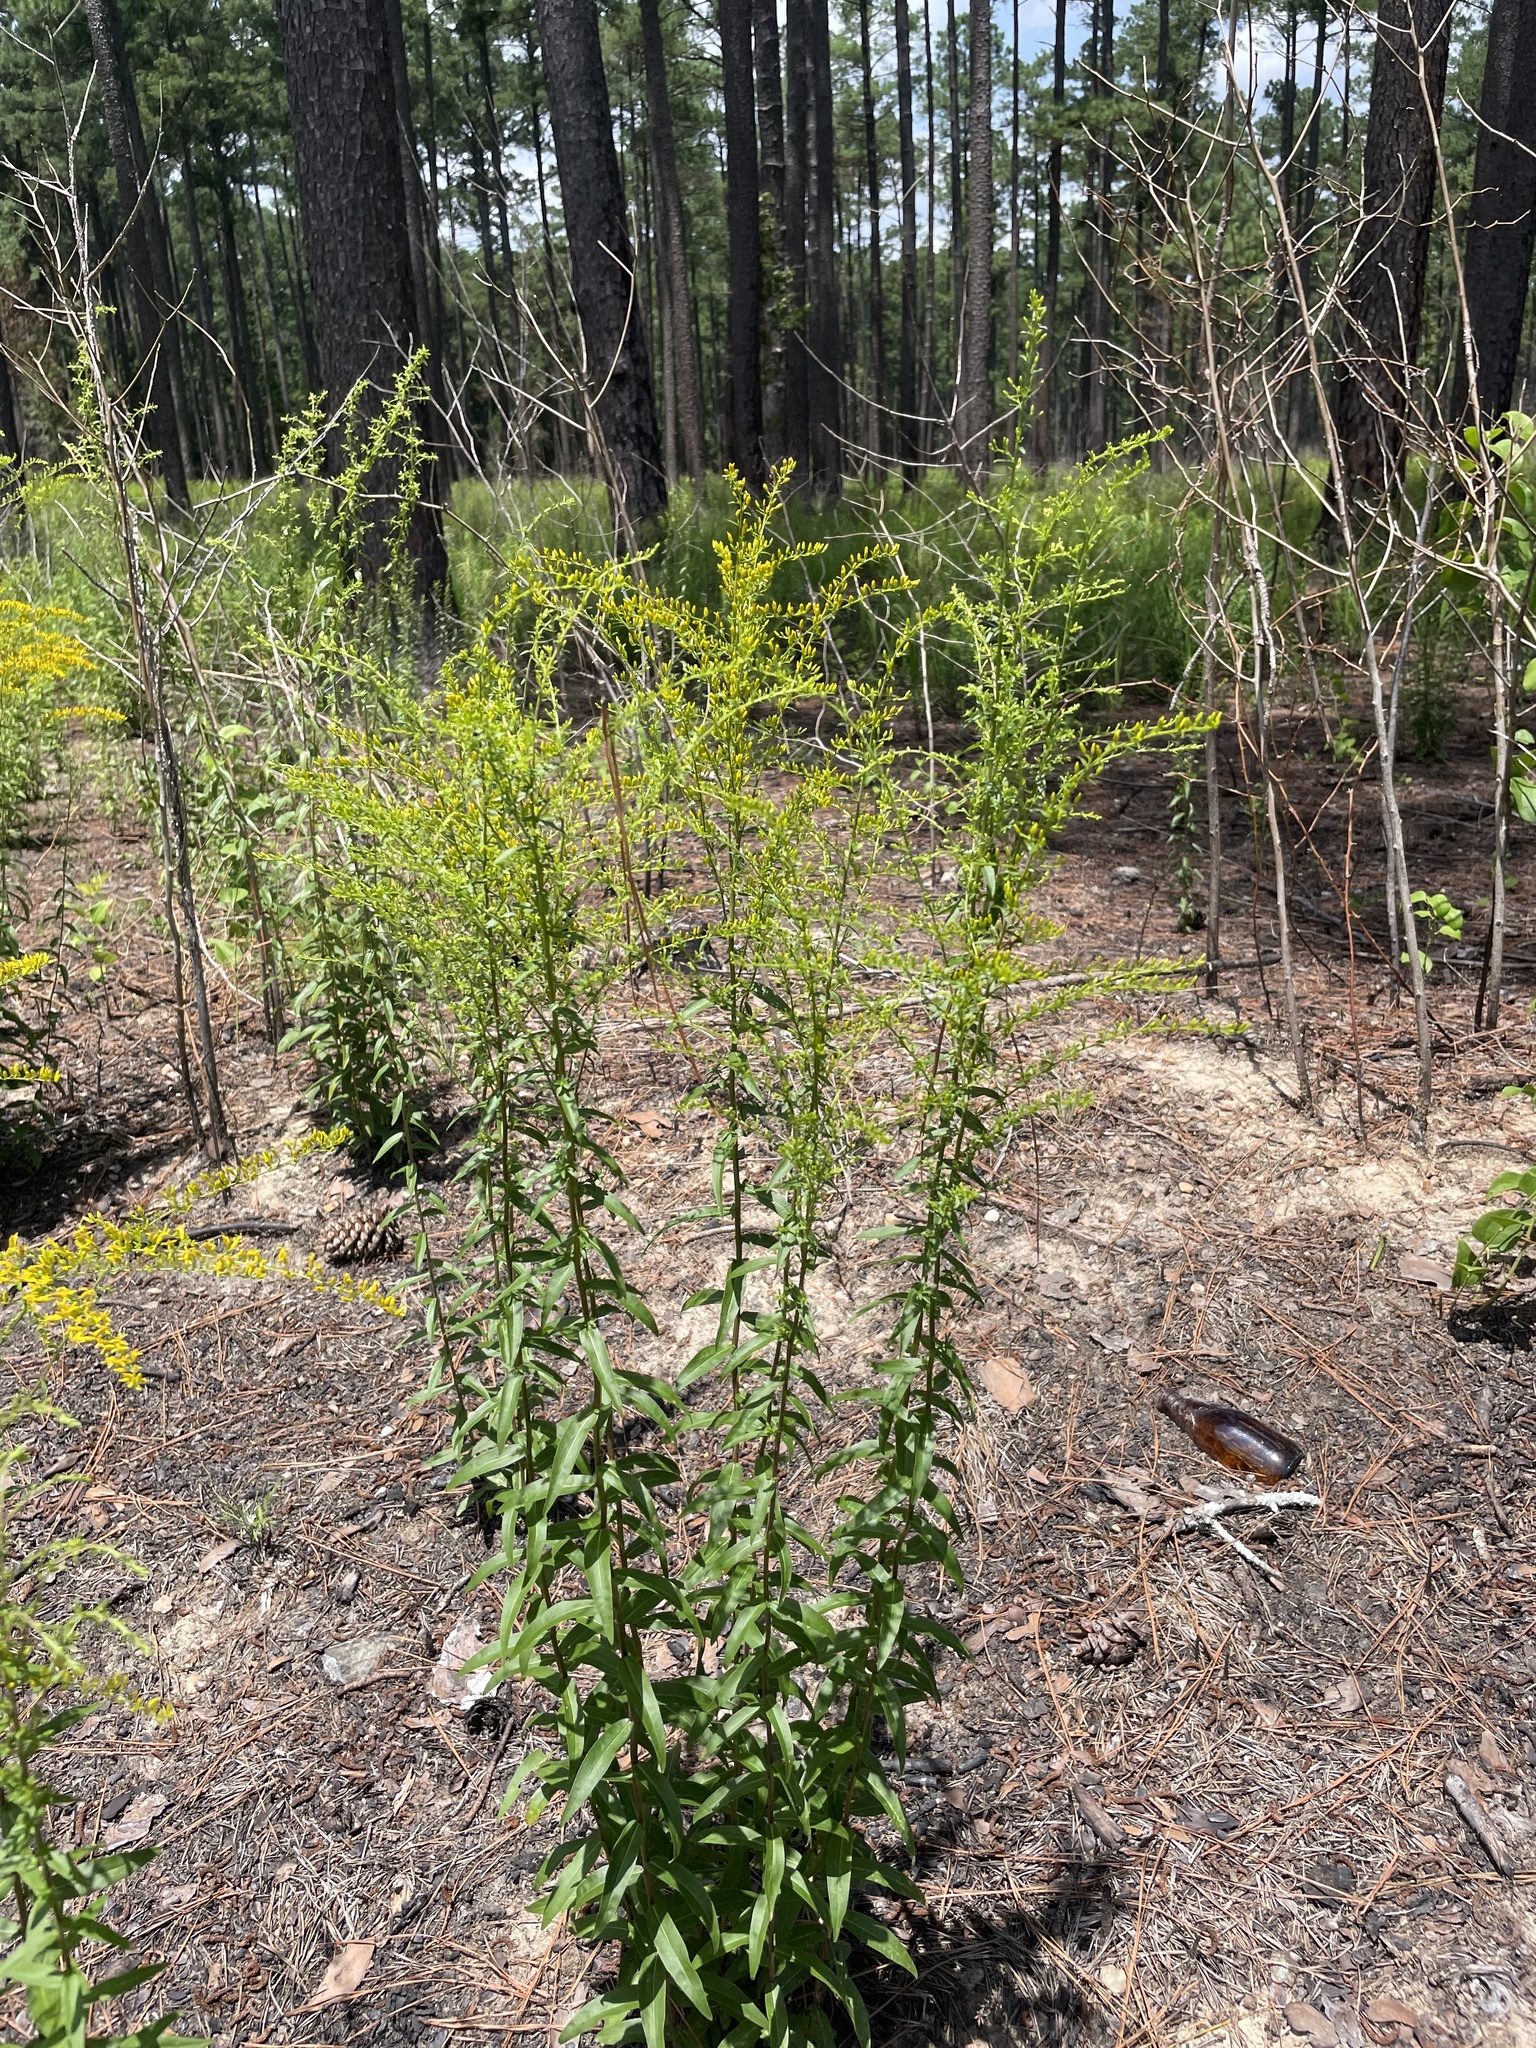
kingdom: Plantae
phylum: Tracheophyta
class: Magnoliopsida
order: Asterales
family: Asteraceae
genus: Solidago
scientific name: Solidago odora
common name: Anise-scented goldenrod
